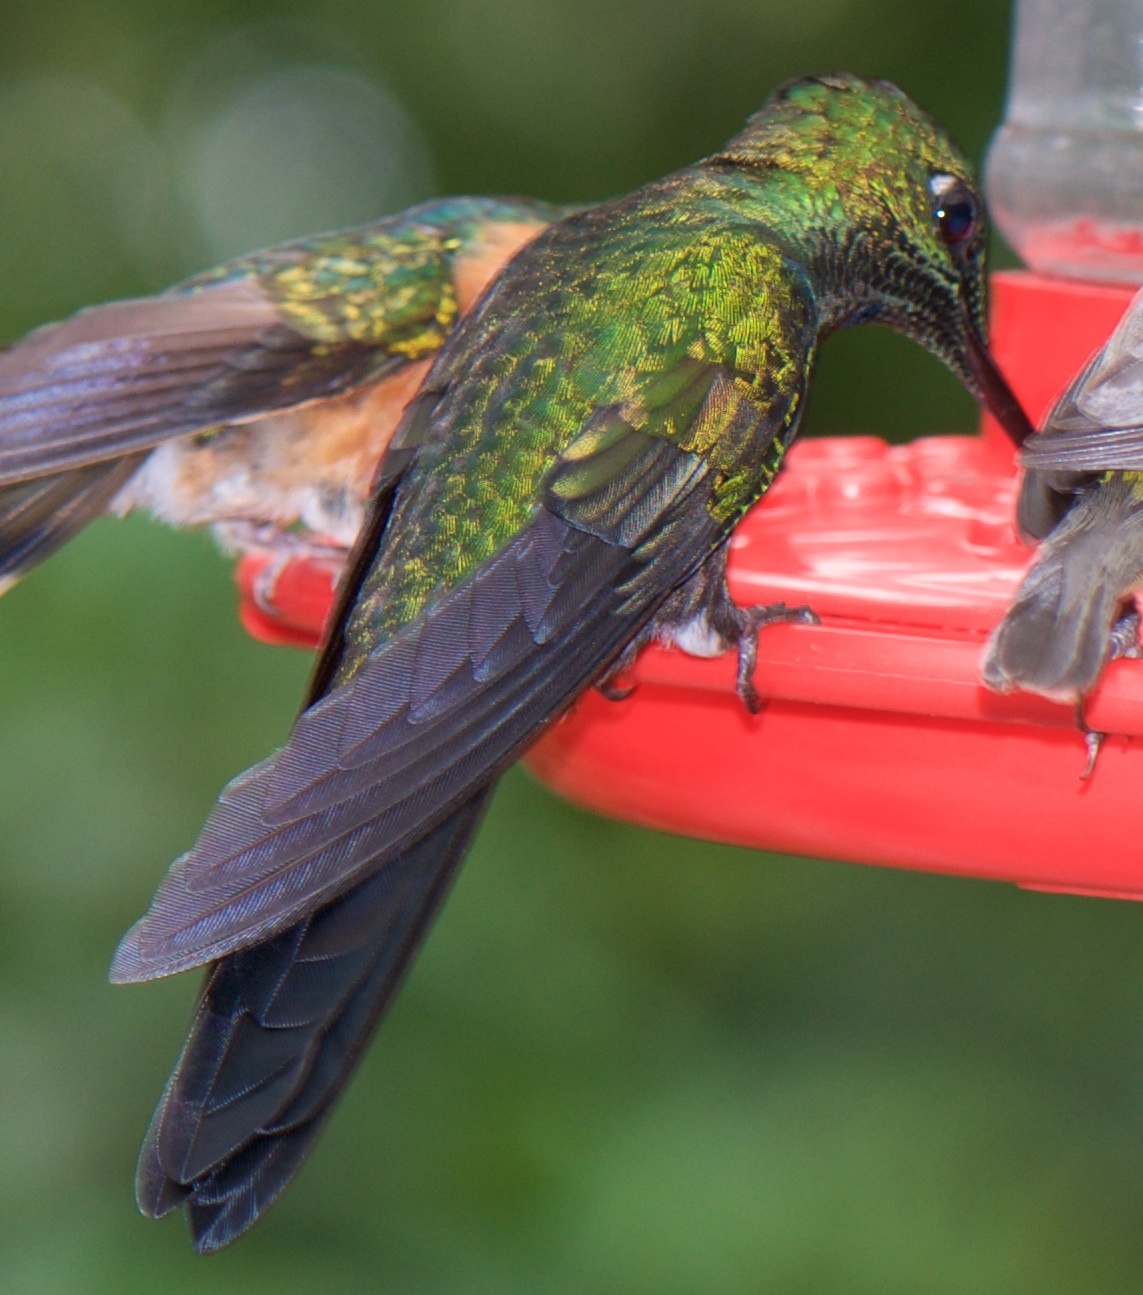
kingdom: Animalia
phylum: Chordata
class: Aves
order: Apodiformes
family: Trochilidae
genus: Heliodoxa
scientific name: Heliodoxa jacula
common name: Green-crowned brilliant
